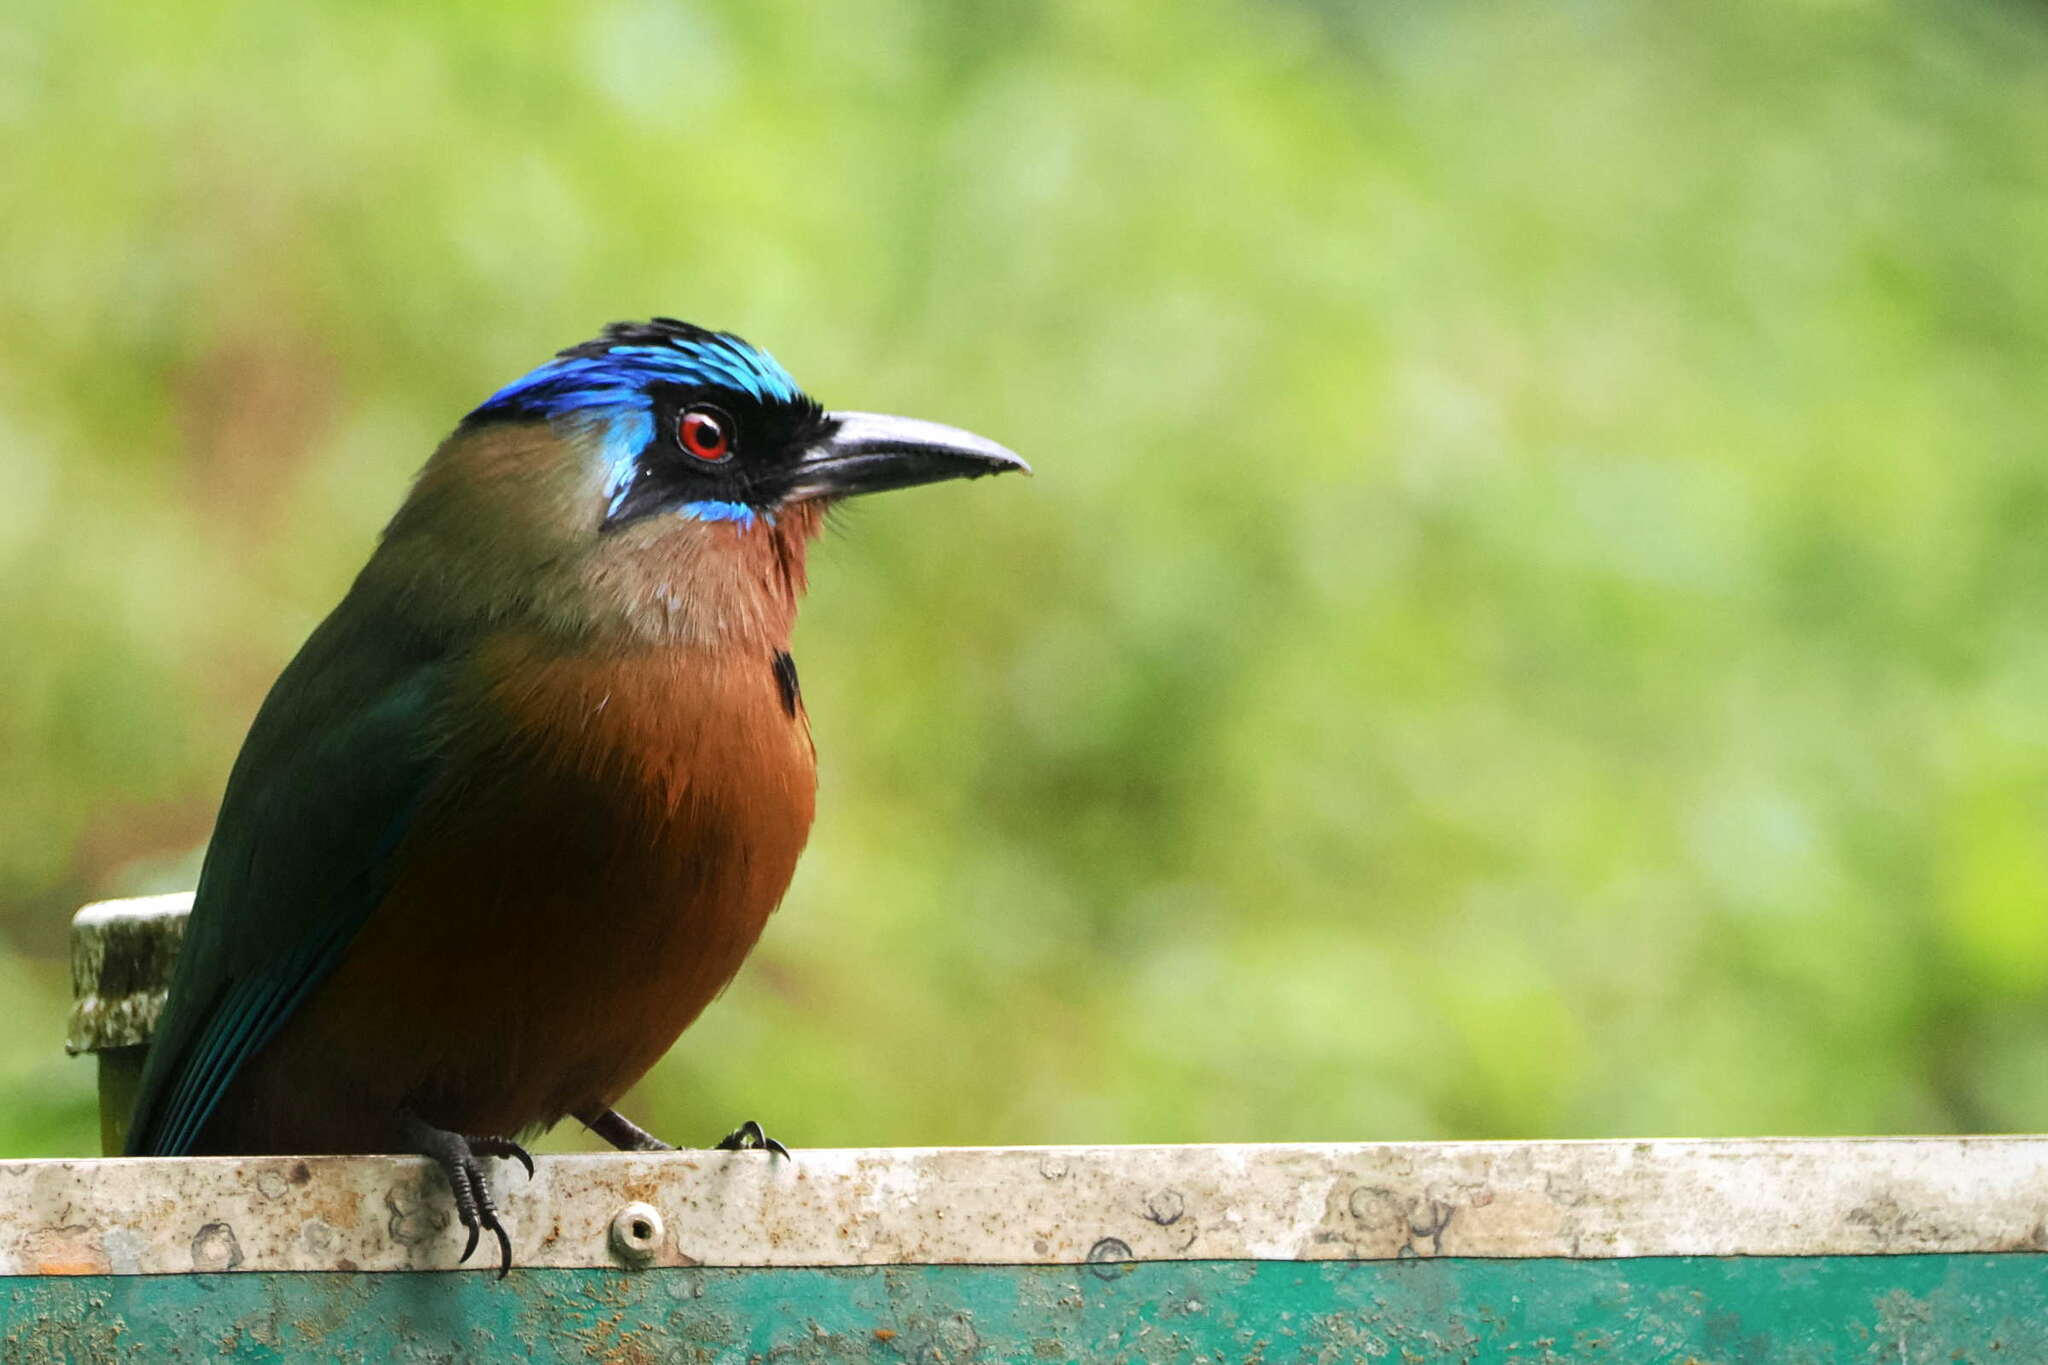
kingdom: Animalia
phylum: Chordata
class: Aves
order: Coraciiformes
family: Momotidae
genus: Momotus
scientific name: Momotus bahamensis
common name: Trinidad motmot
